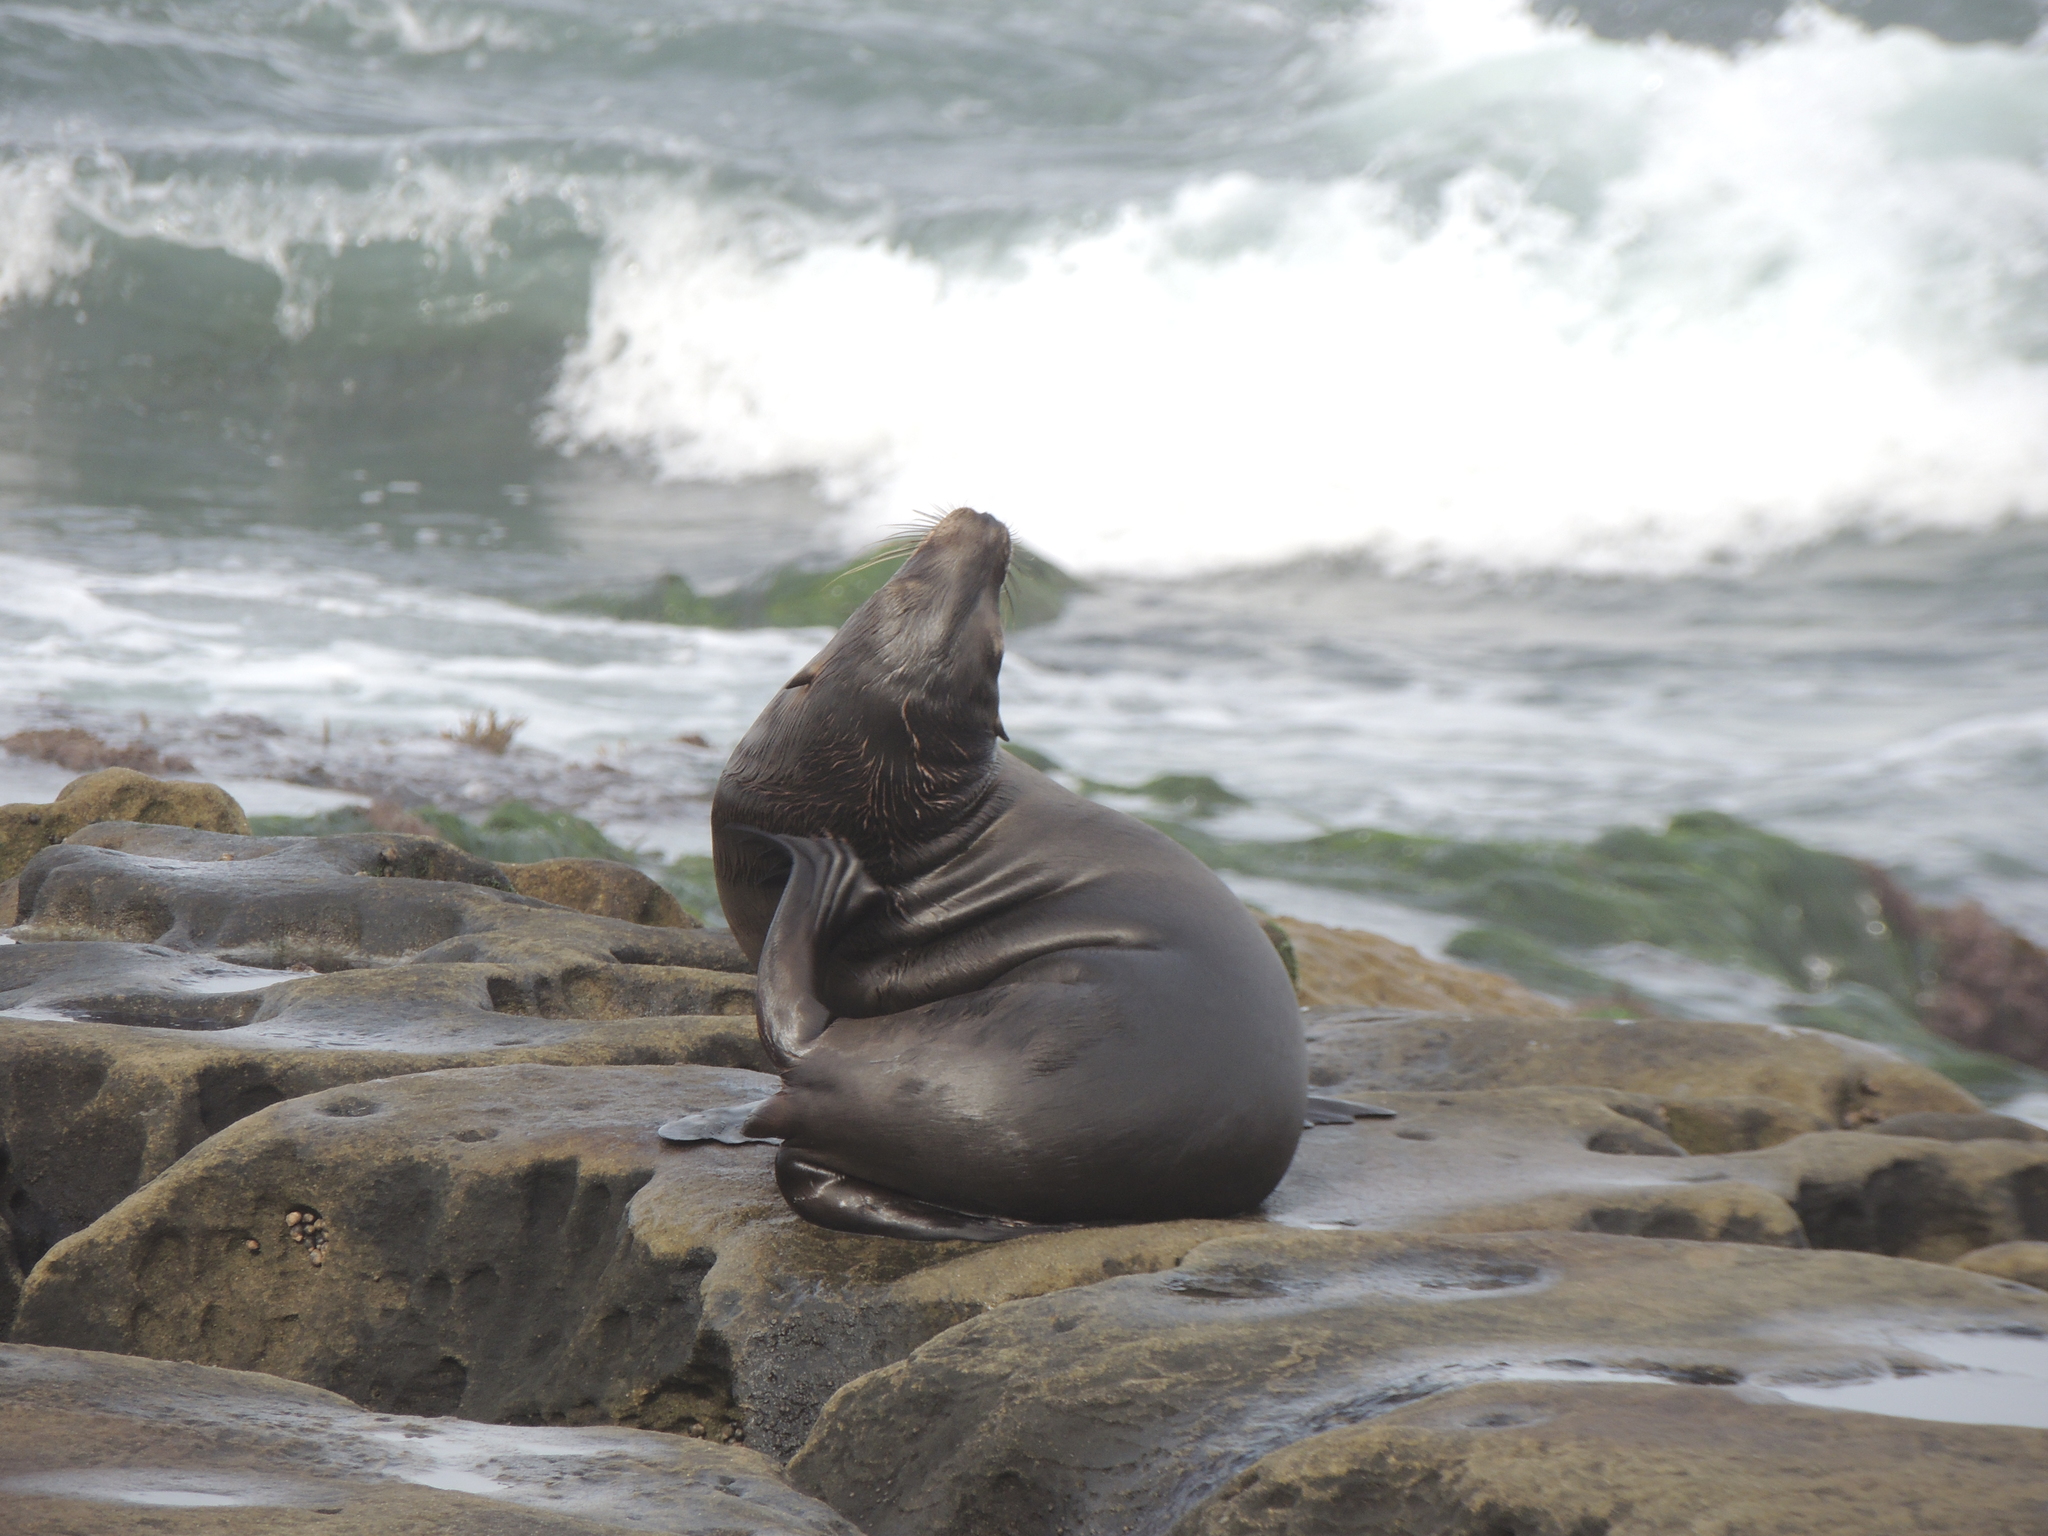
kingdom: Animalia
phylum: Chordata
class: Mammalia
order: Carnivora
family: Otariidae
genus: Zalophus
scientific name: Zalophus californianus
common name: California sea lion
